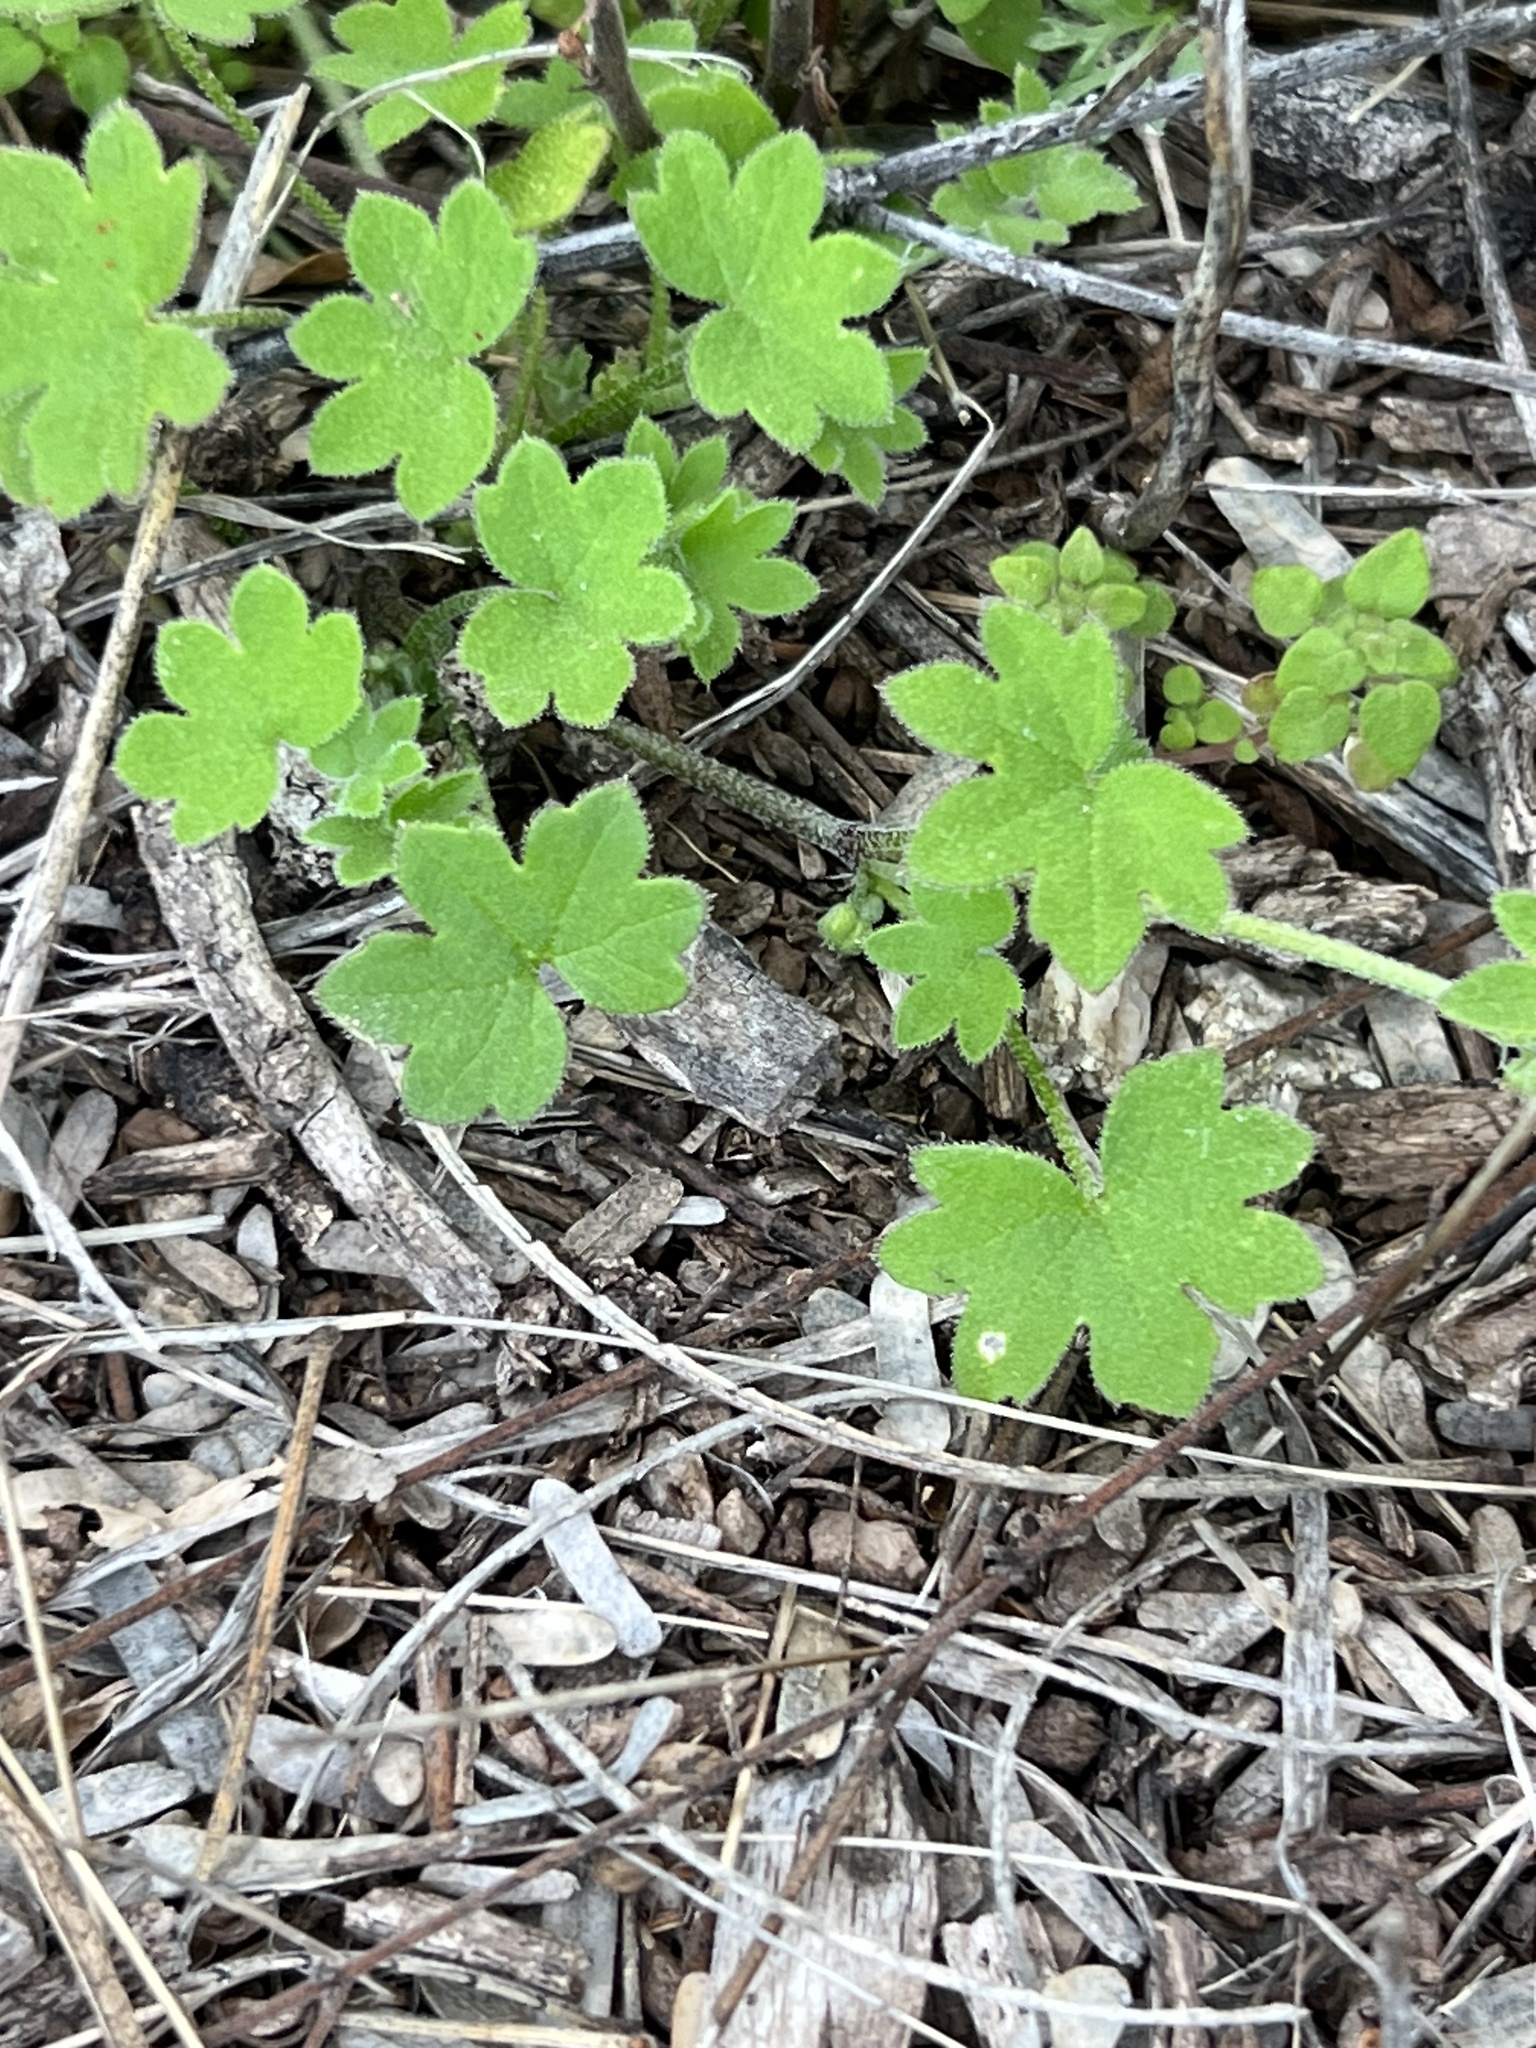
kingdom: Plantae
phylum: Tracheophyta
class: Magnoliopsida
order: Apiales
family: Apiaceae
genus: Bowlesia
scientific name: Bowlesia incana
